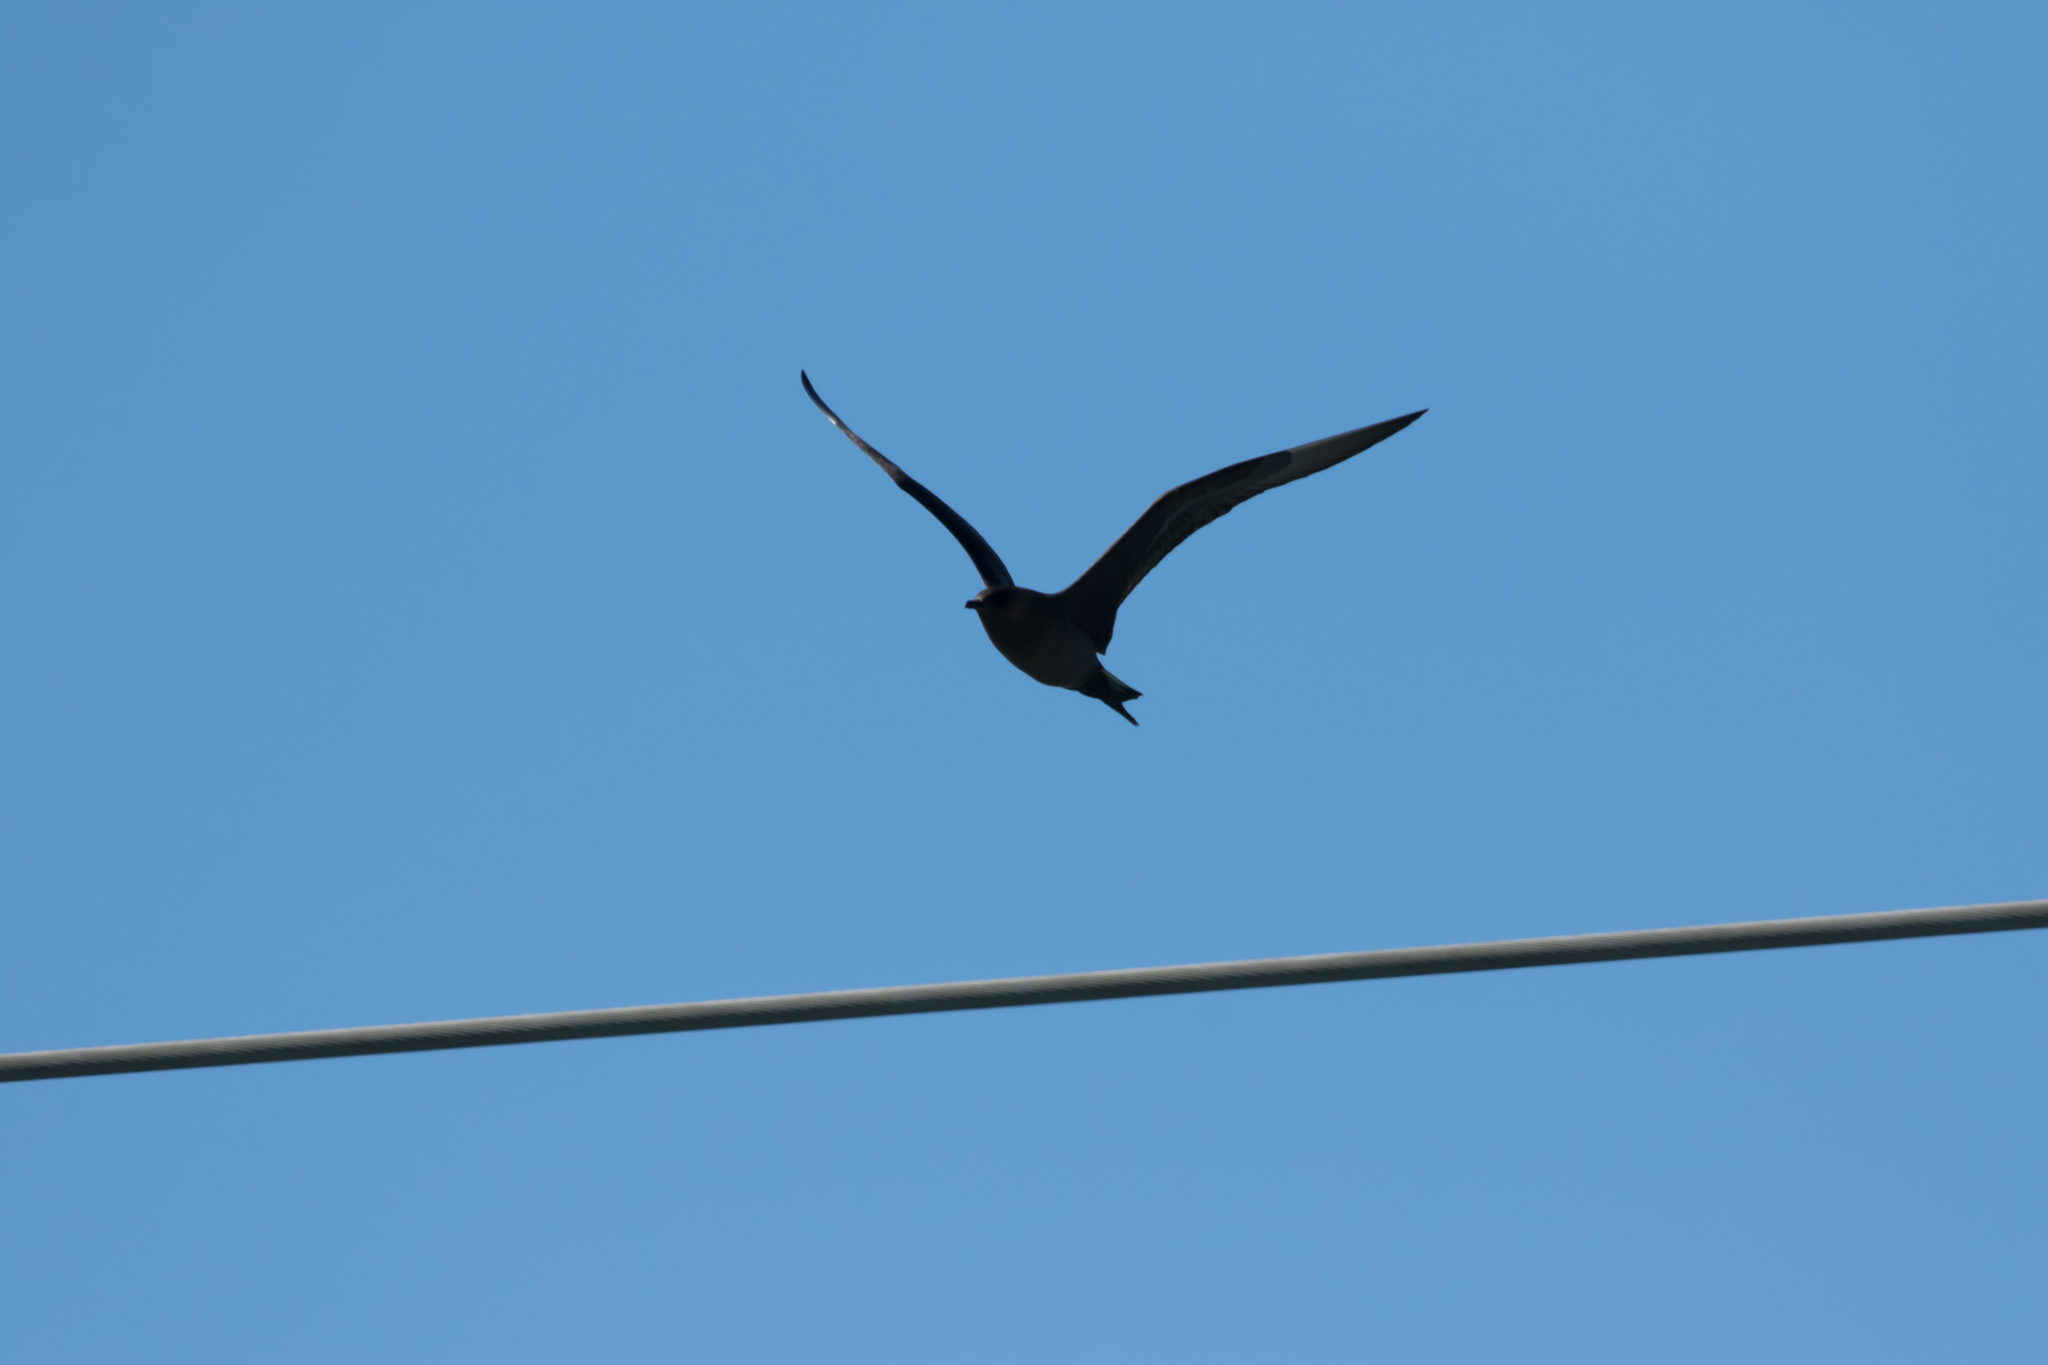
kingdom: Animalia
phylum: Chordata
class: Aves
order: Charadriiformes
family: Stercorariidae
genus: Stercorarius
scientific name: Stercorarius parasiticus
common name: Parasitic jaeger
